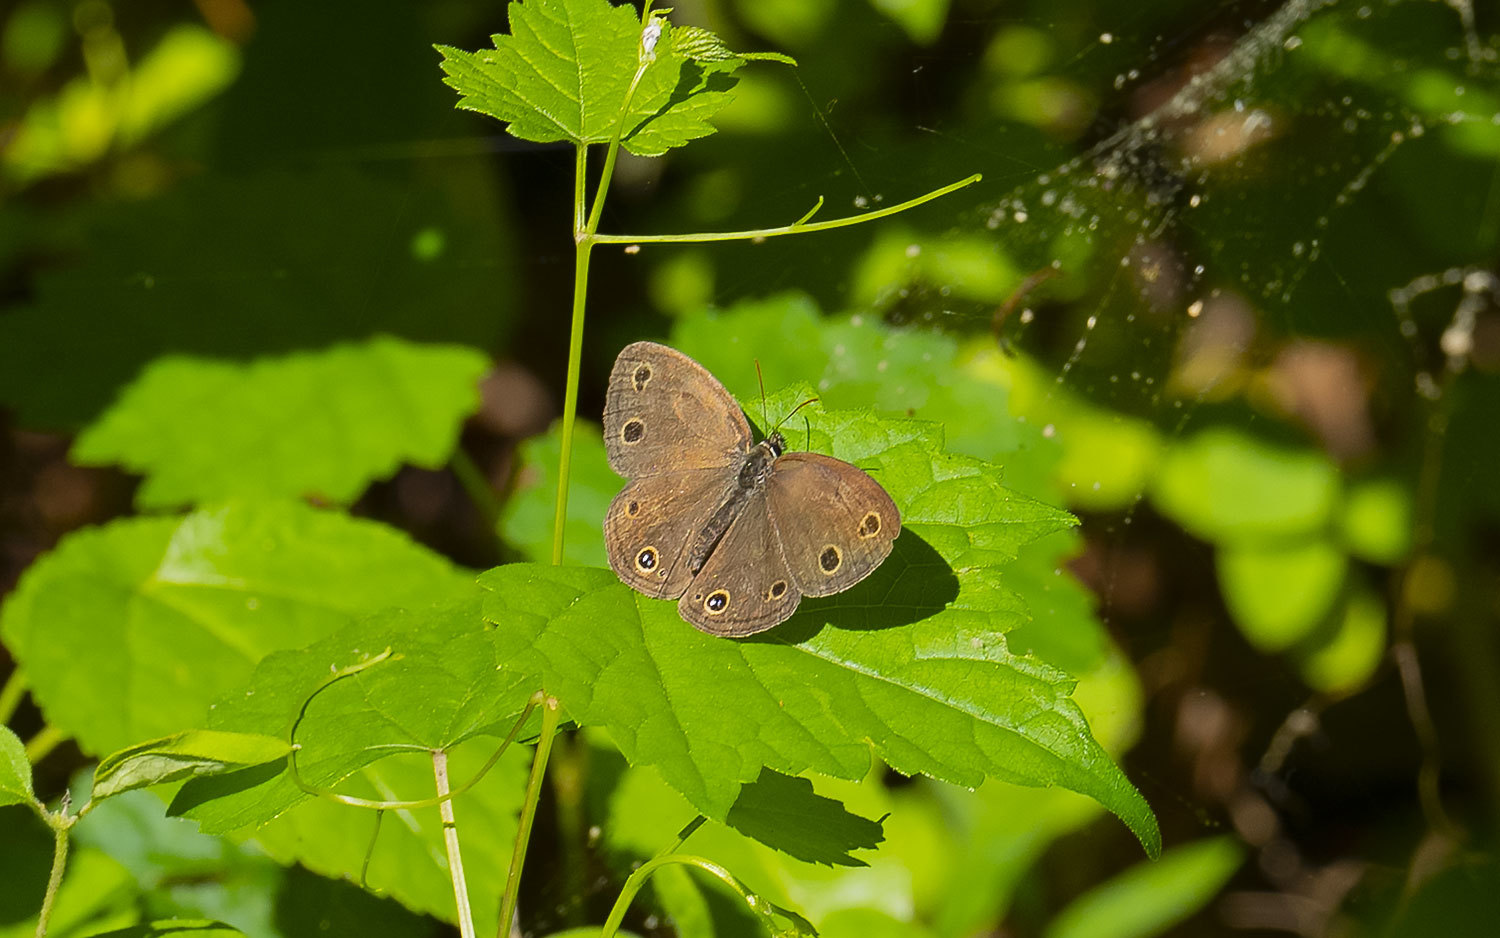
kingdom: Animalia
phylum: Arthropoda
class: Insecta
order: Lepidoptera
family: Nymphalidae
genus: Euptychia
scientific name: Euptychia cymela
